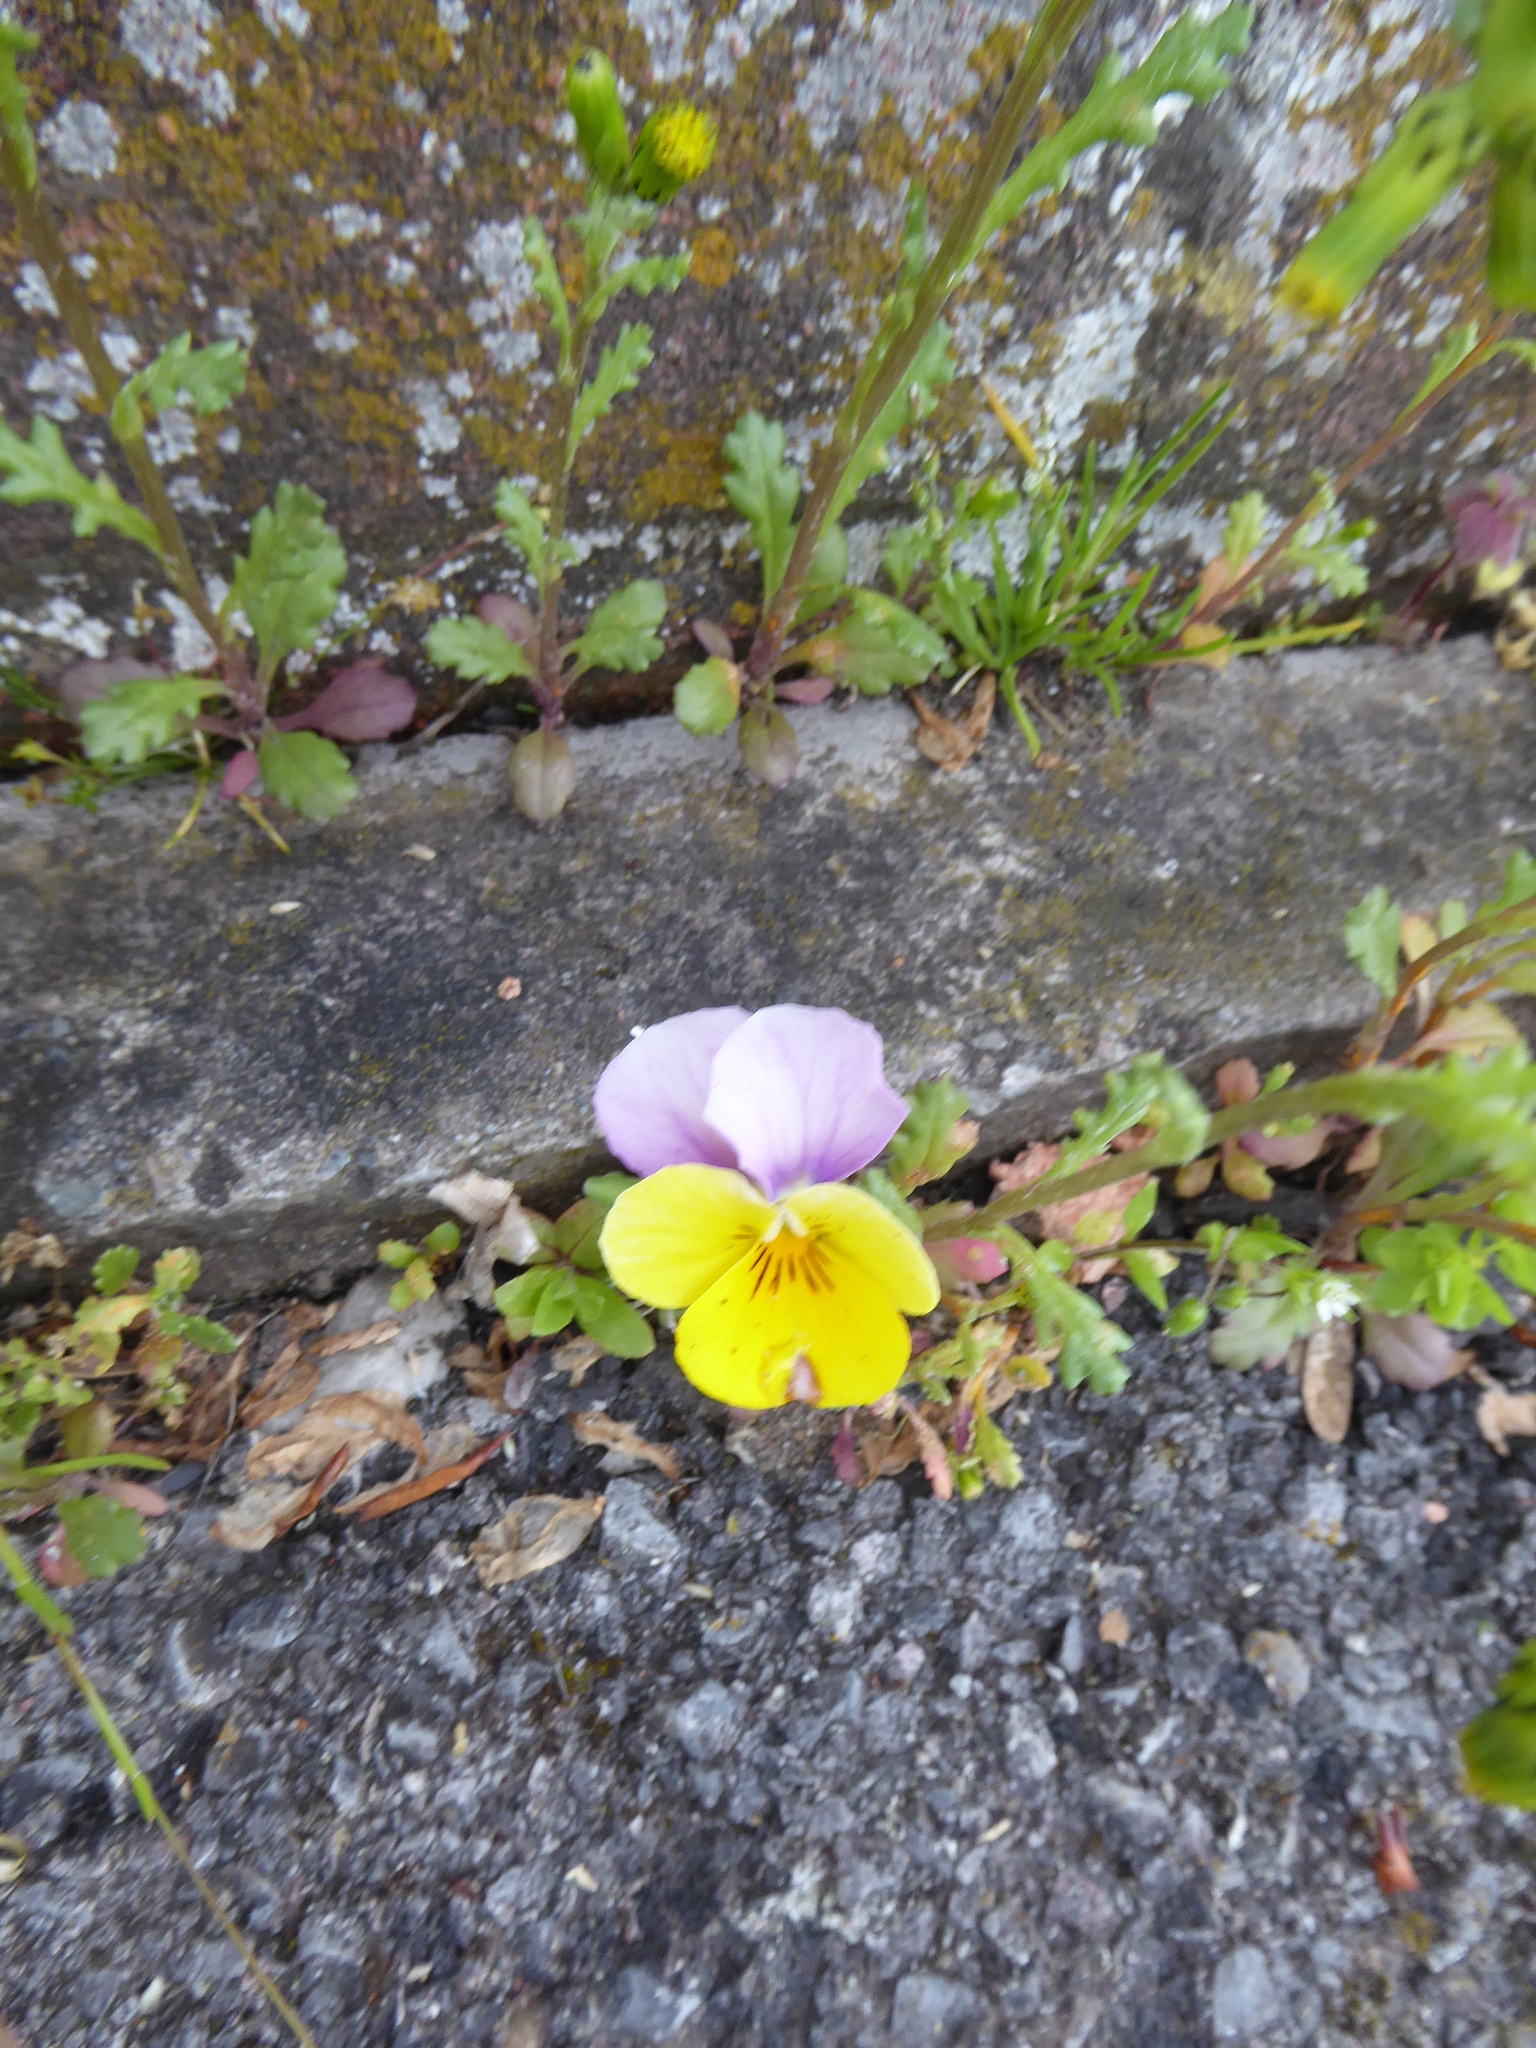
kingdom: Plantae
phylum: Tracheophyta
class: Magnoliopsida
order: Malpighiales
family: Violaceae
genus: Viola
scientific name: Viola williamsii
